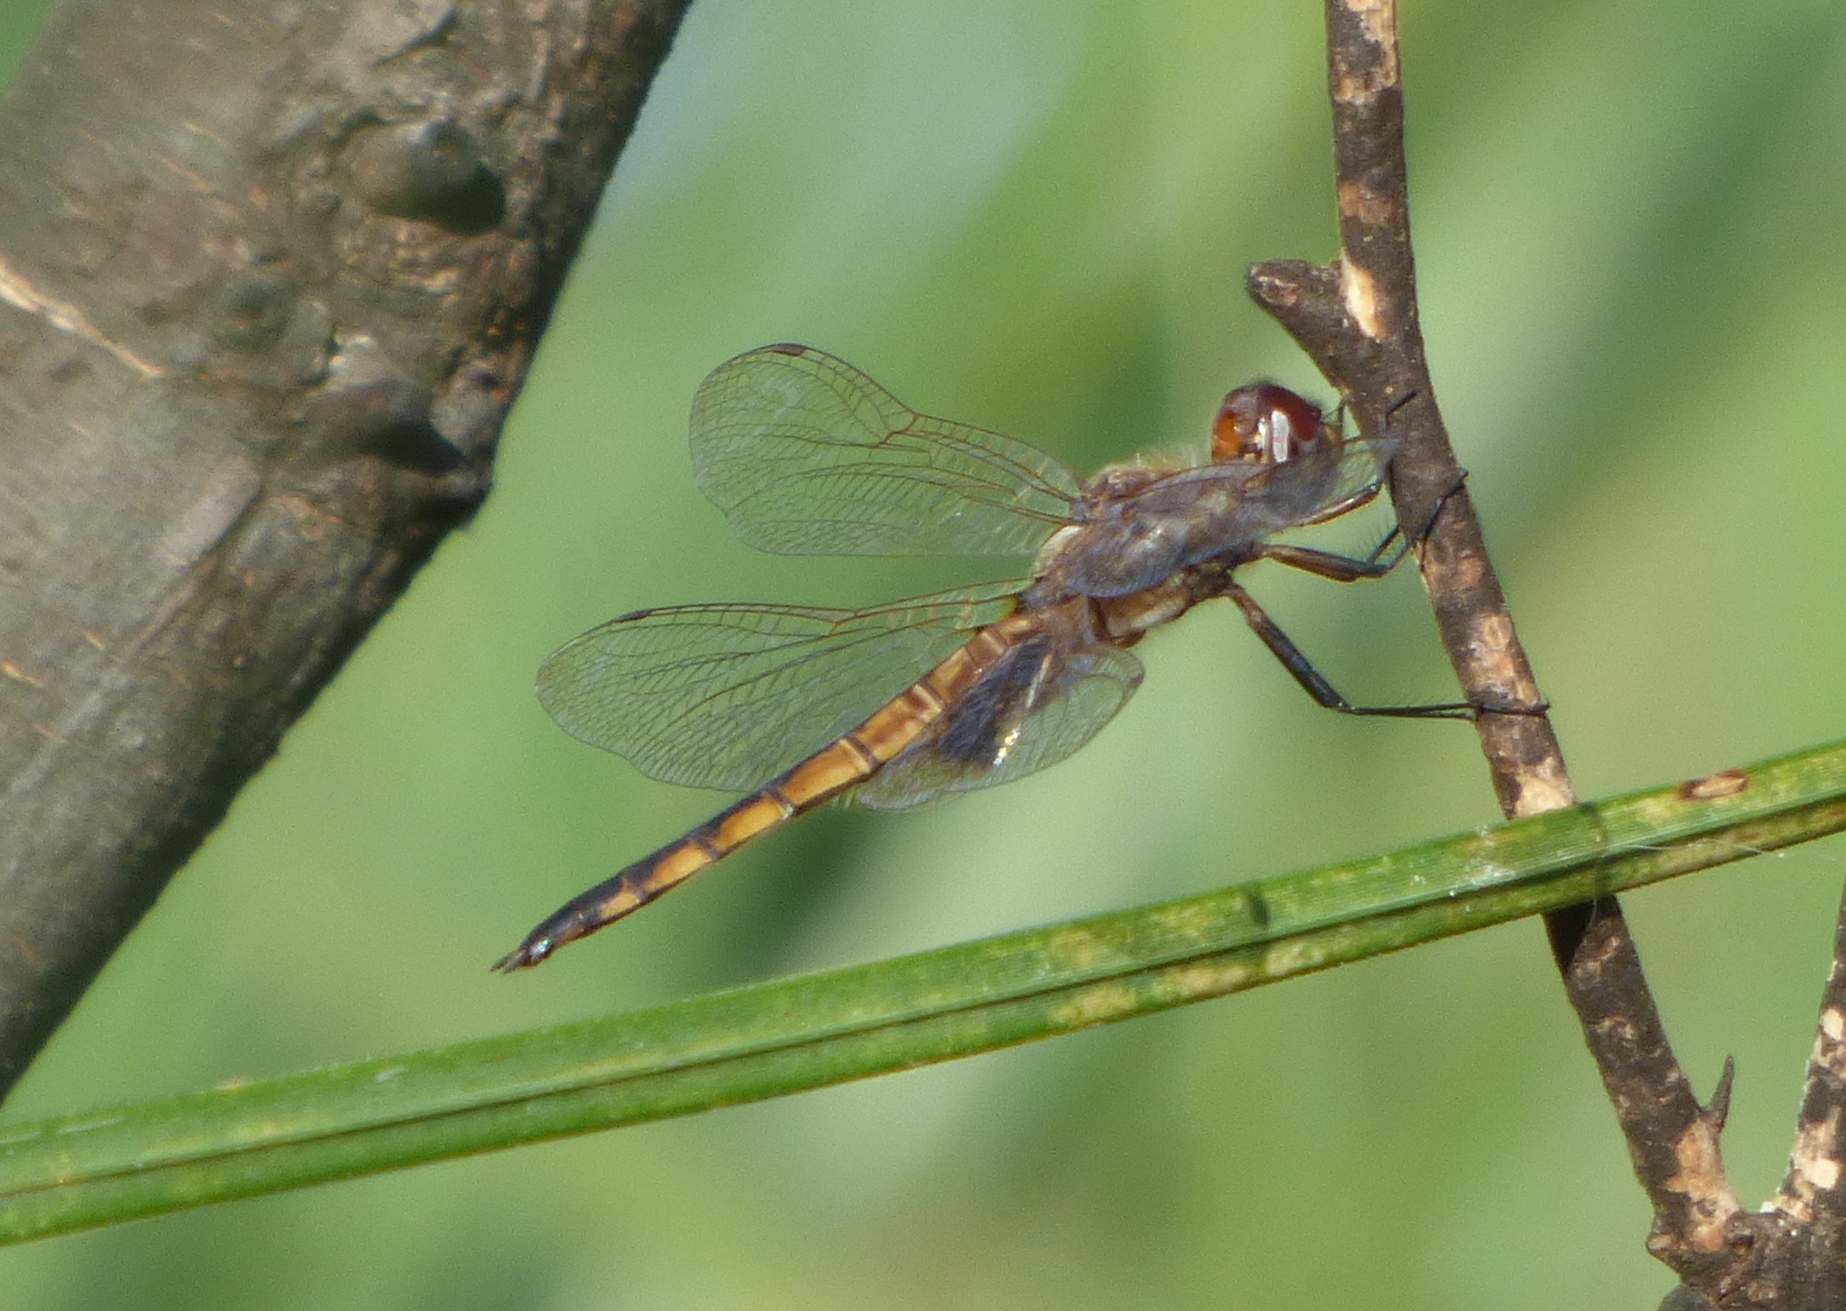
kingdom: Animalia
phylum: Arthropoda
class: Insecta
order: Odonata
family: Libellulidae
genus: Miathyria
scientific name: Miathyria marcella
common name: Hyacinth glider
